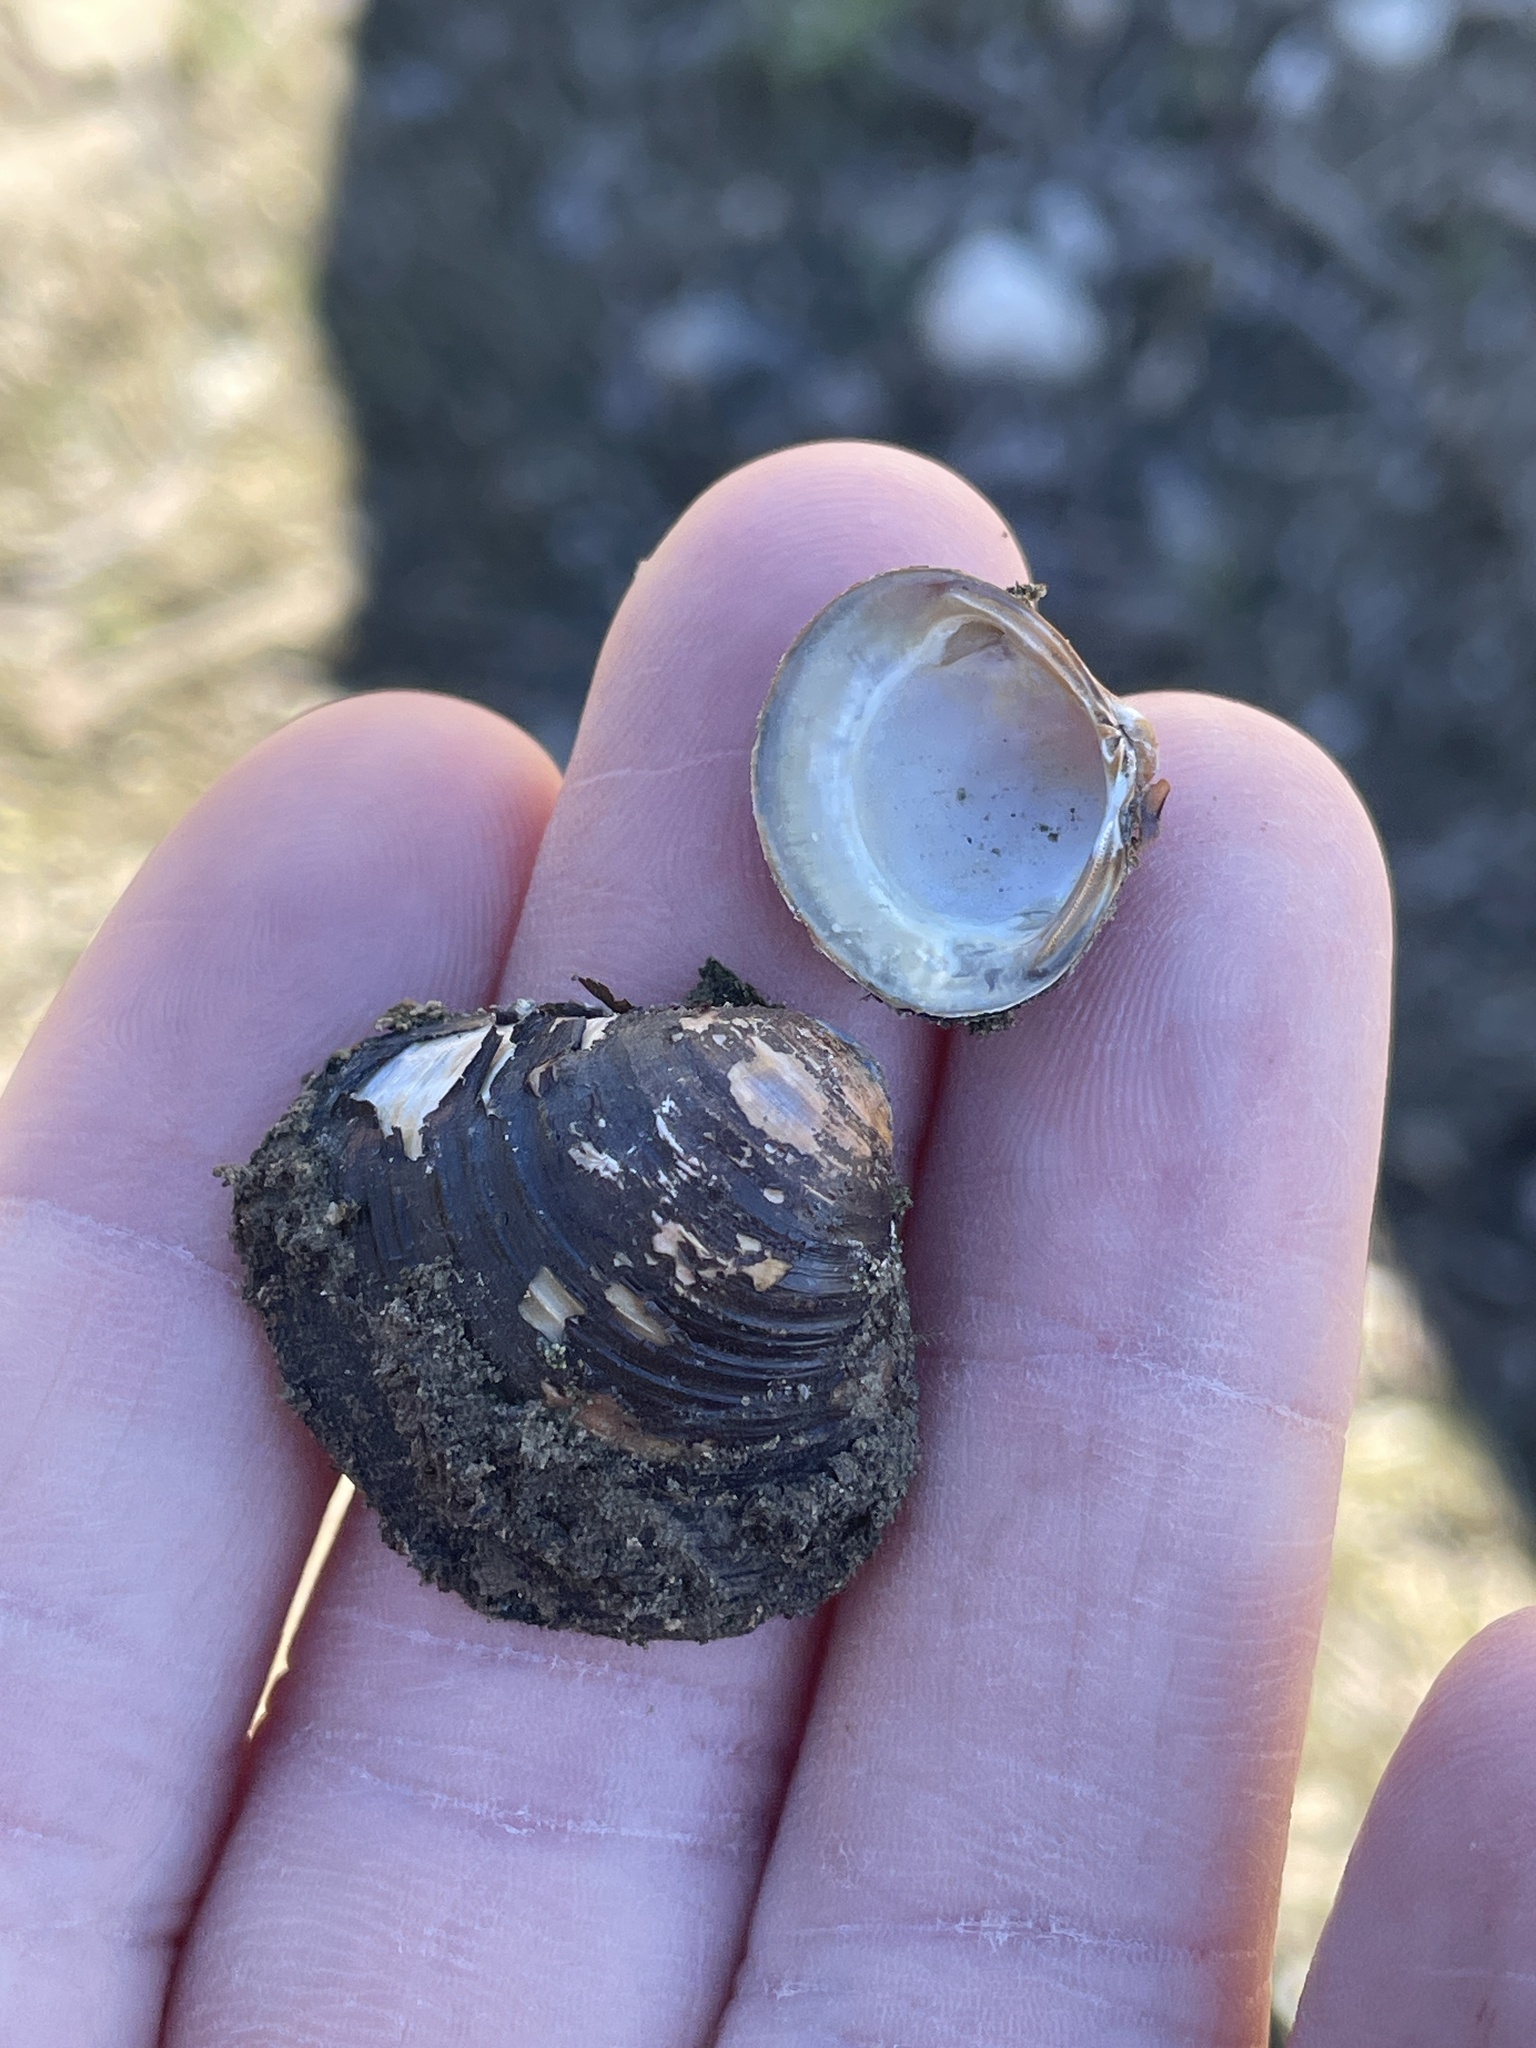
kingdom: Animalia
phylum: Mollusca
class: Bivalvia
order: Venerida
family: Cyrenidae
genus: Corbicula
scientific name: Corbicula fluminea
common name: Asian clam
